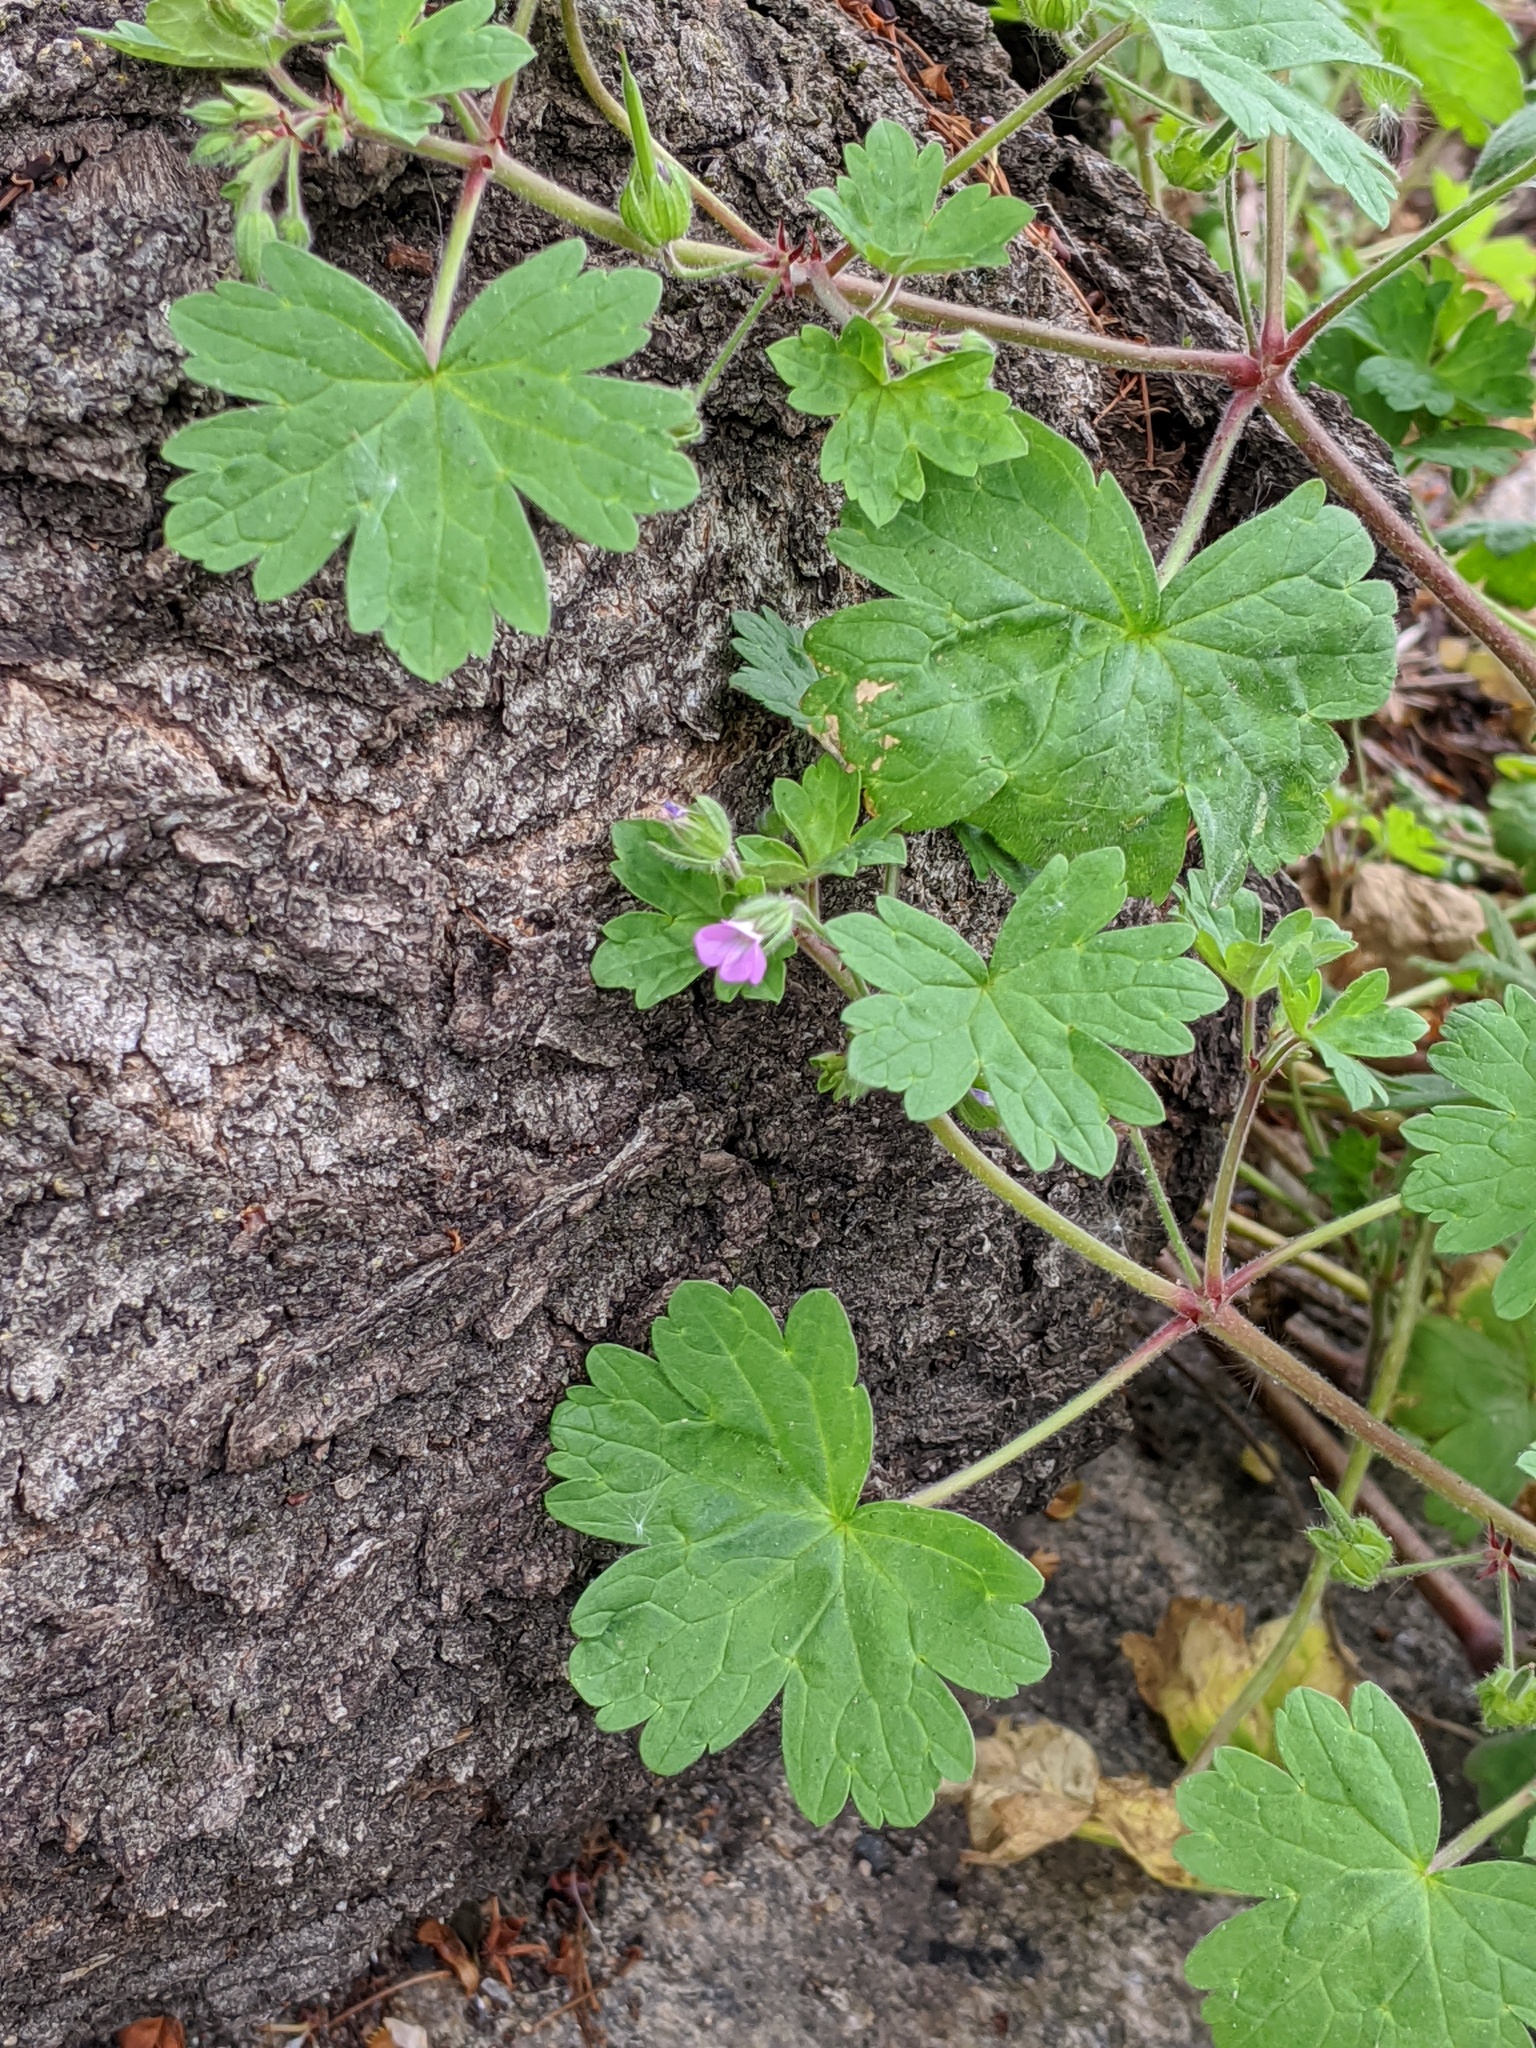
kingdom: Plantae
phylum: Tracheophyta
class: Magnoliopsida
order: Geraniales
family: Geraniaceae
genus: Geranium
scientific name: Geranium rotundifolium
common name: Round-leaved crane's-bill
